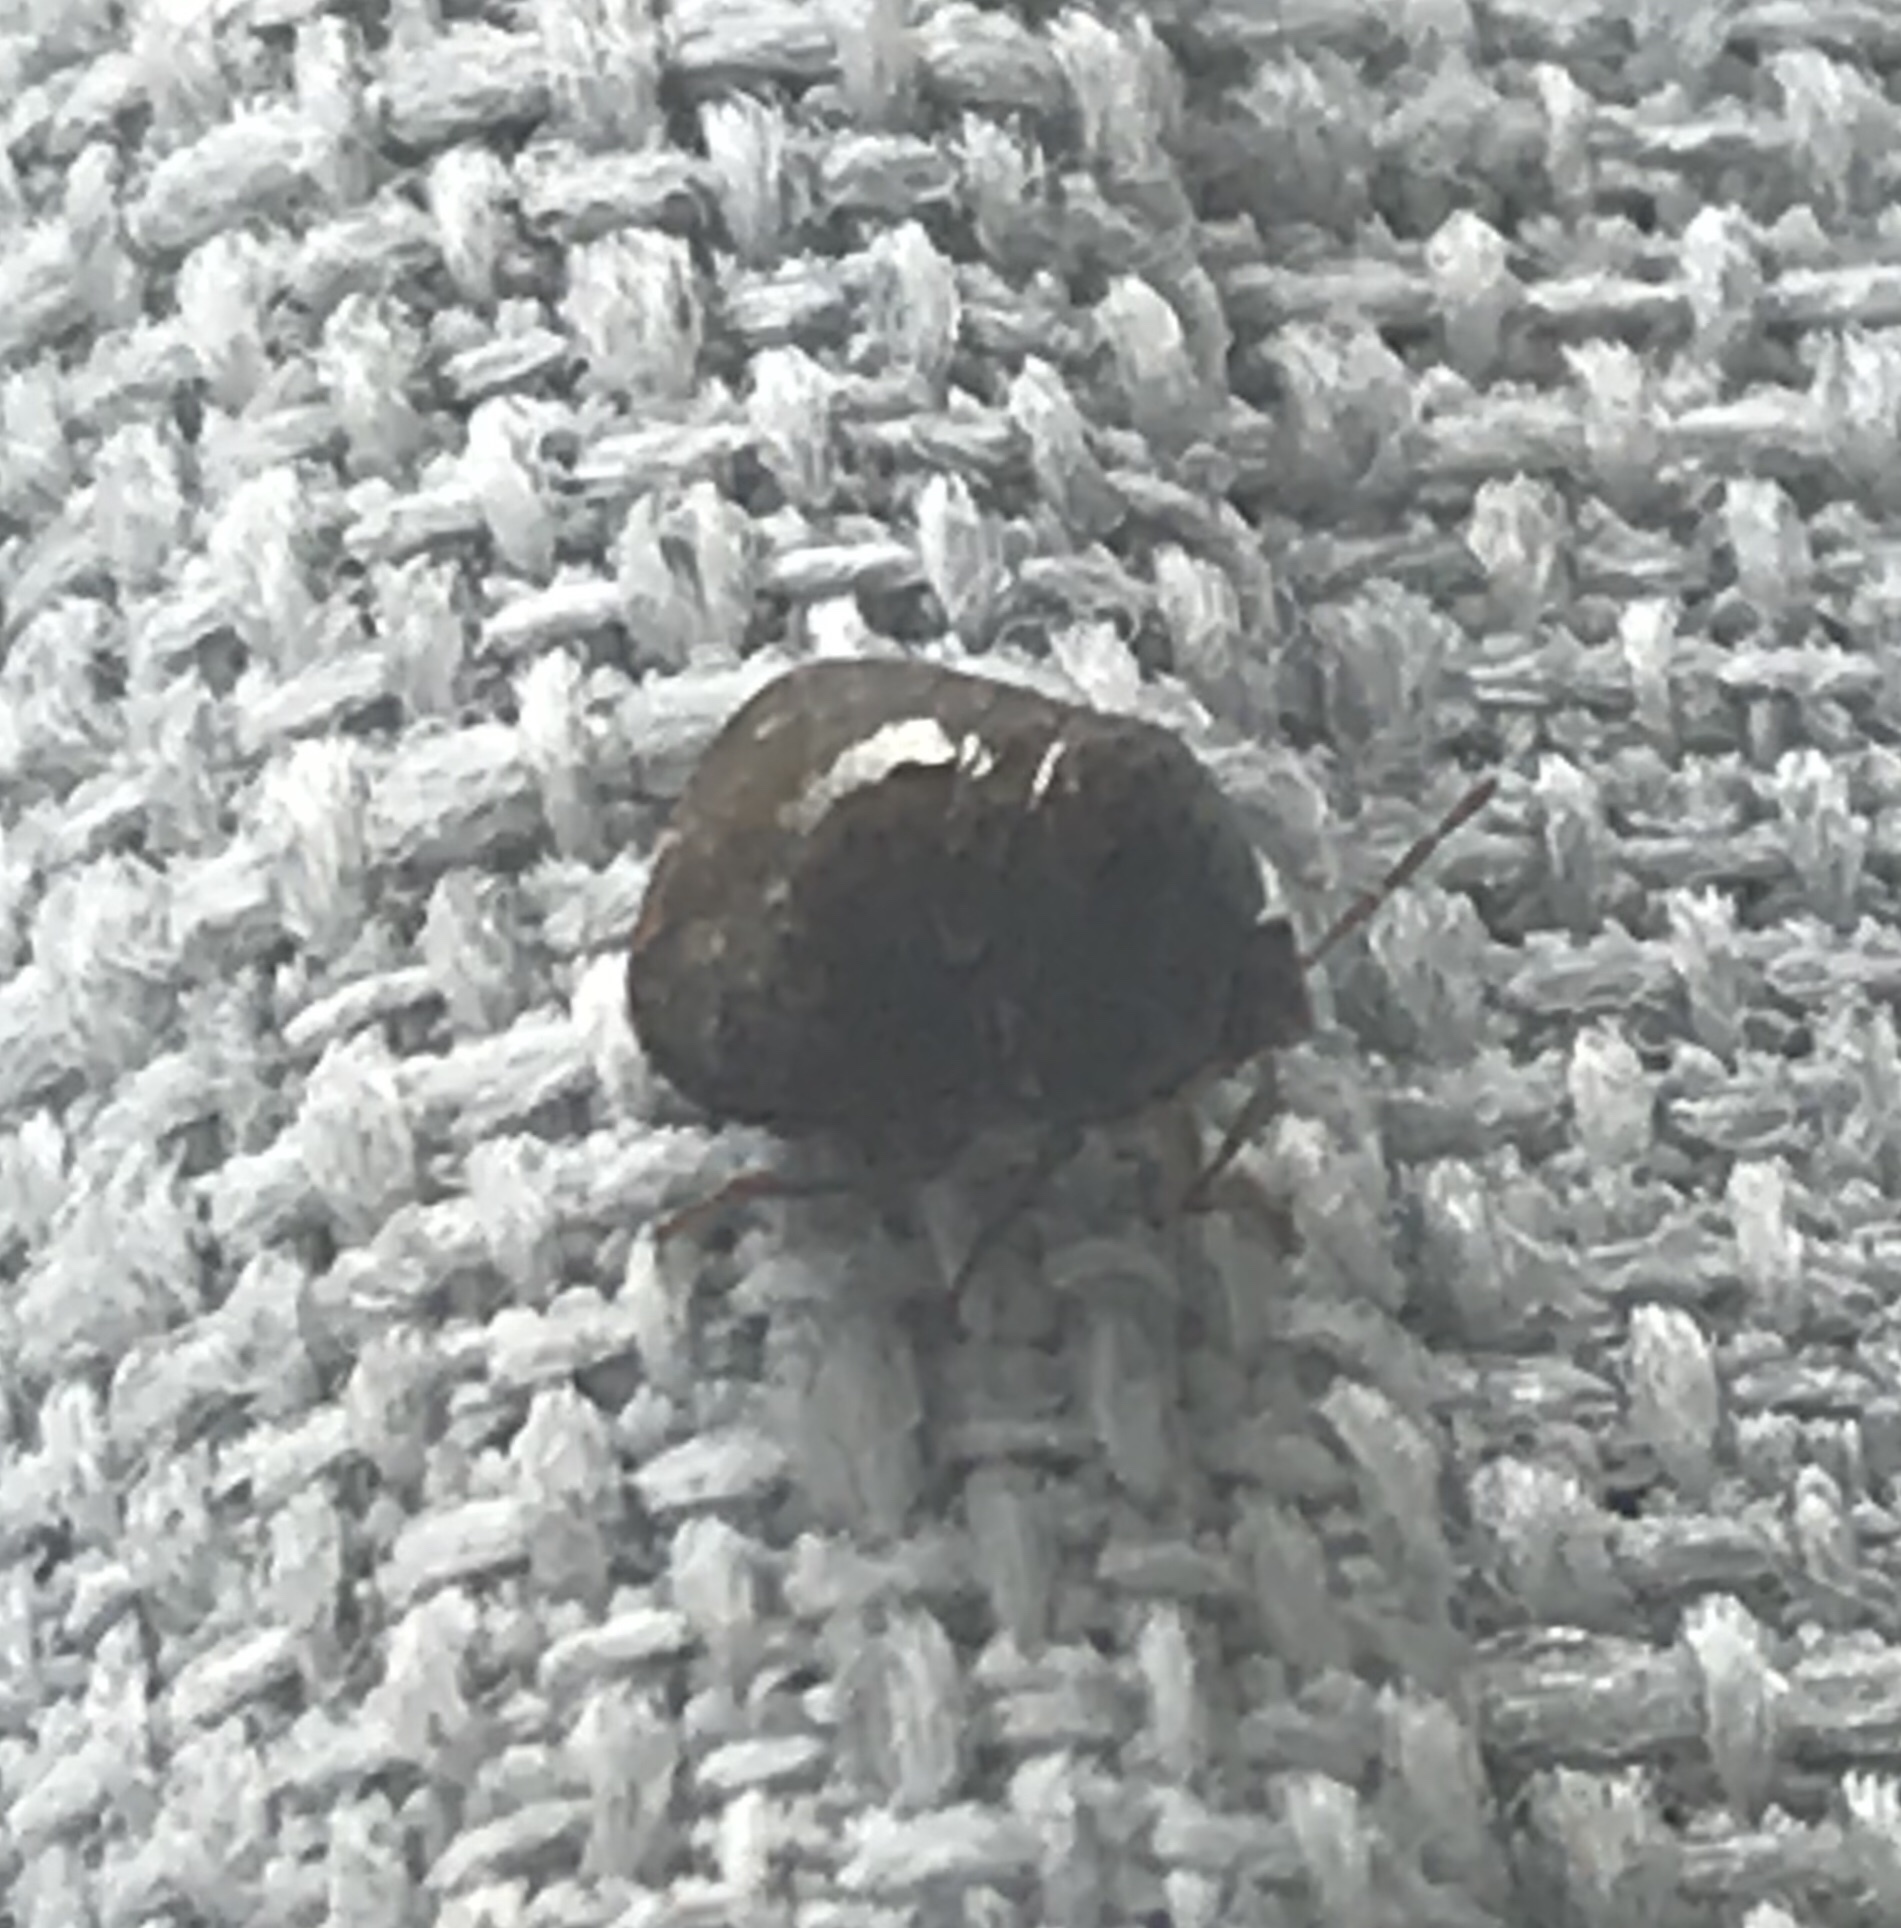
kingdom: Animalia
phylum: Arthropoda
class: Insecta
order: Hemiptera
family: Plataspidae
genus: Megacopta
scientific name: Megacopta cribraria
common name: Bean plataspid
